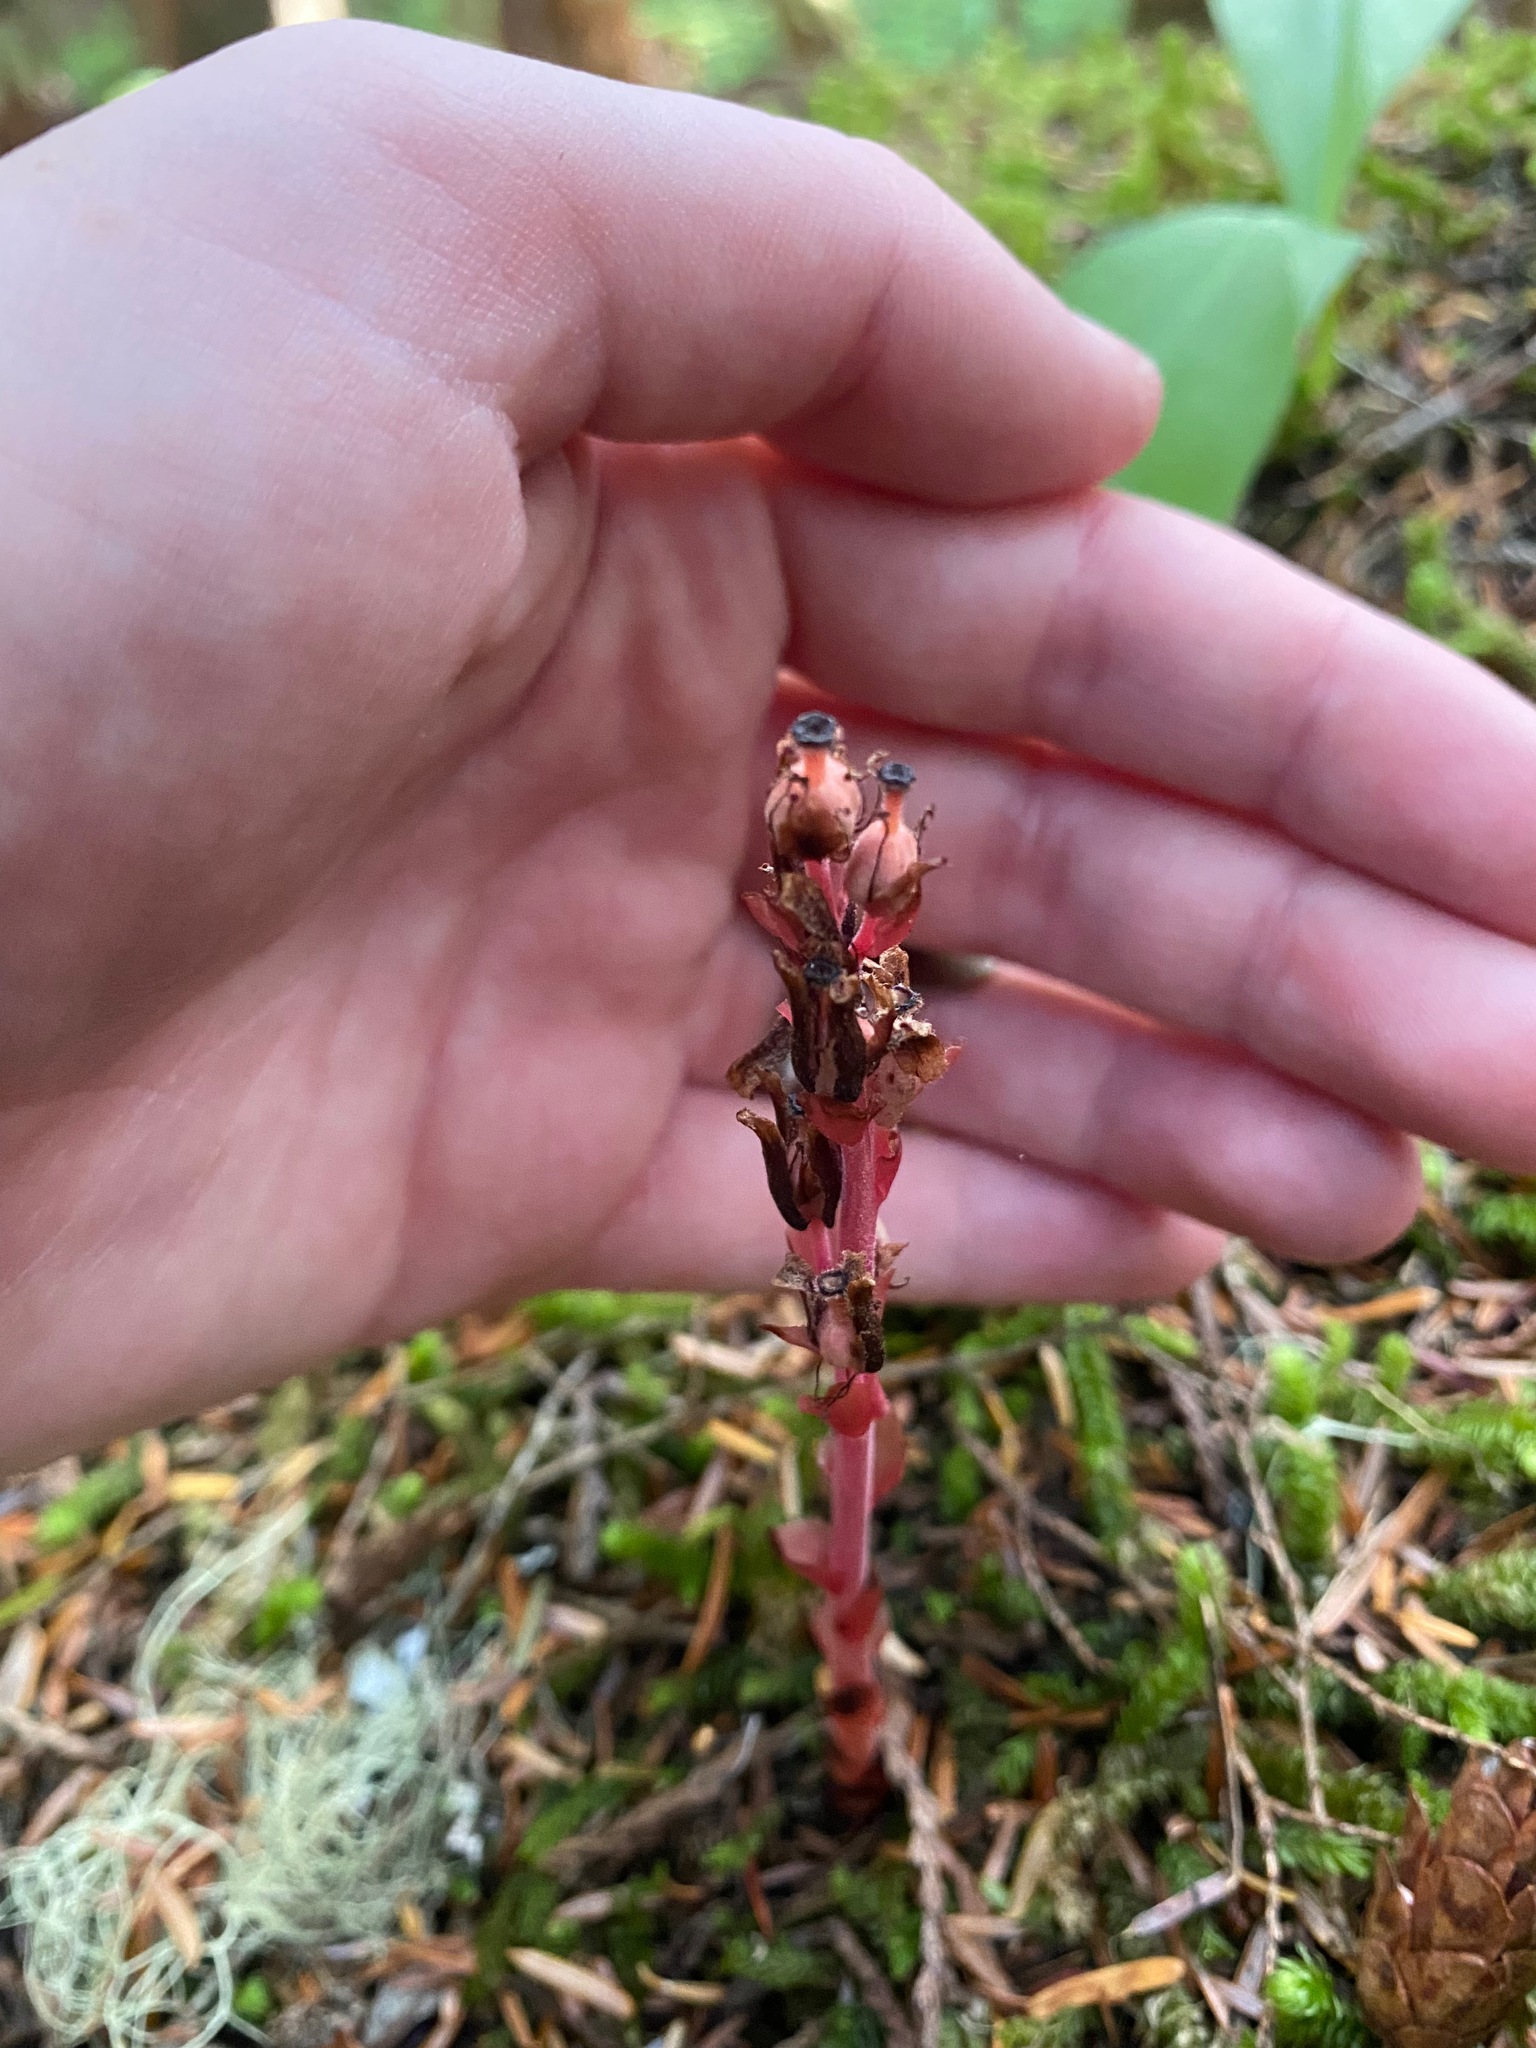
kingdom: Plantae
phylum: Tracheophyta
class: Magnoliopsida
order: Ericales
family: Ericaceae
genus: Hypopitys
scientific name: Hypopitys monotropa
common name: Yellow bird's-nest
